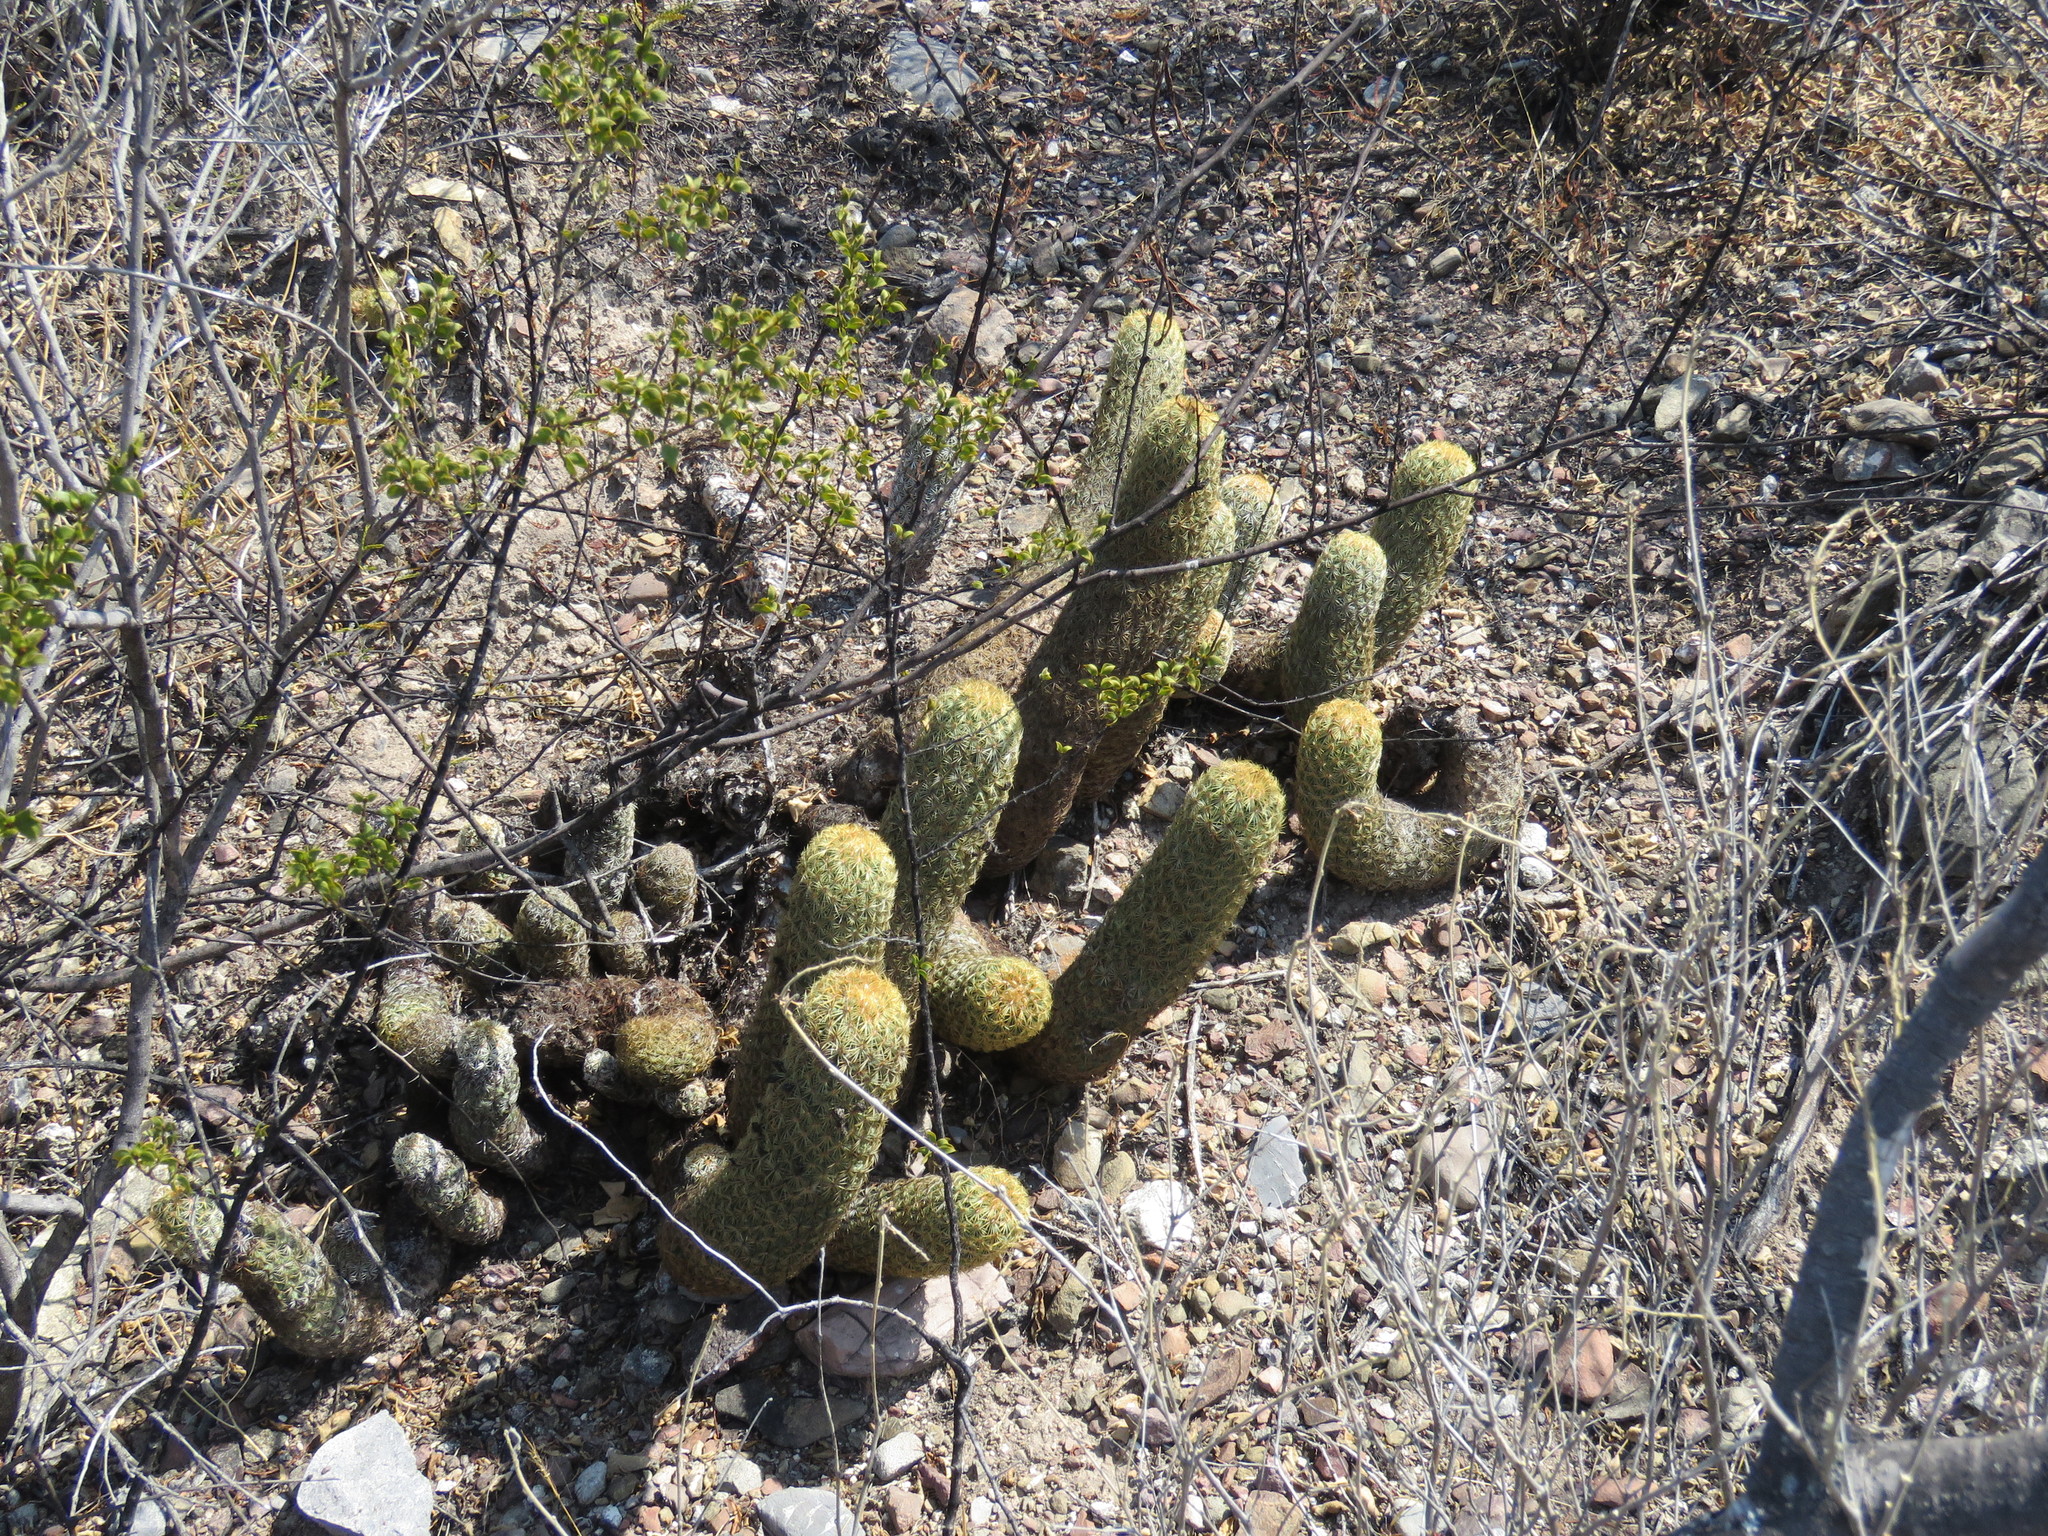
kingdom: Plantae
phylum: Tracheophyta
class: Magnoliopsida
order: Caryophyllales
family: Cactaceae
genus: Coryphantha
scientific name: Coryphantha erecta
